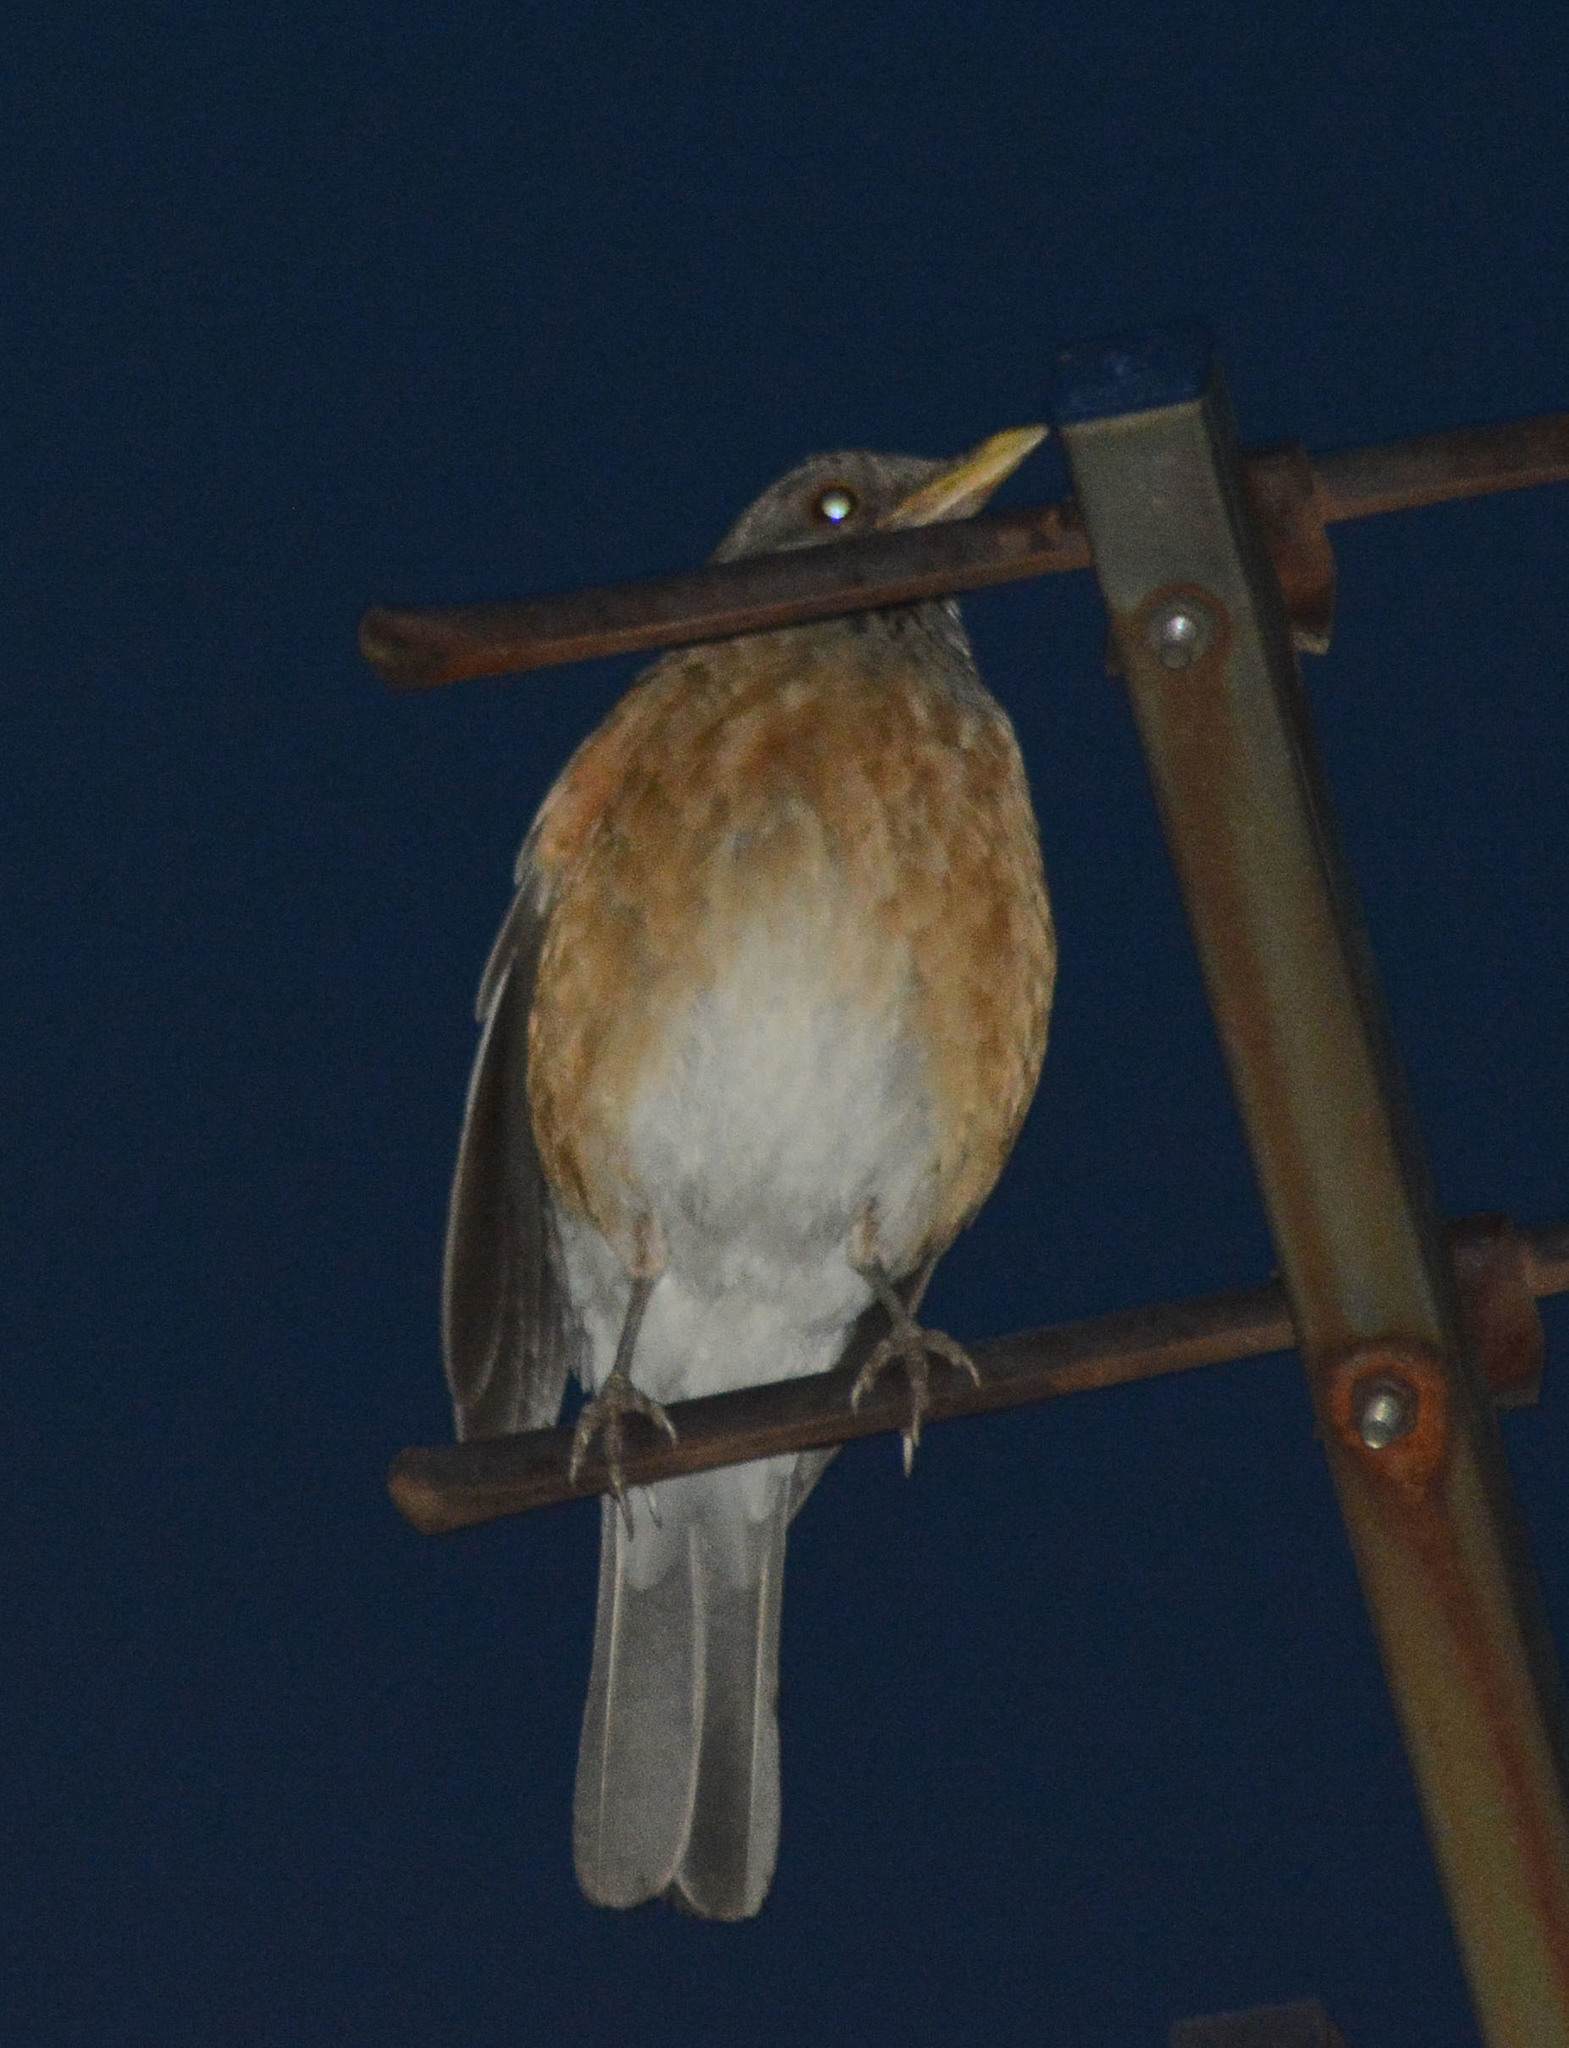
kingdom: Animalia
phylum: Chordata
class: Aves
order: Passeriformes
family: Turdidae
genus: Turdus
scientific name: Turdus rufopalliatus
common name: Rufous-backed robin
